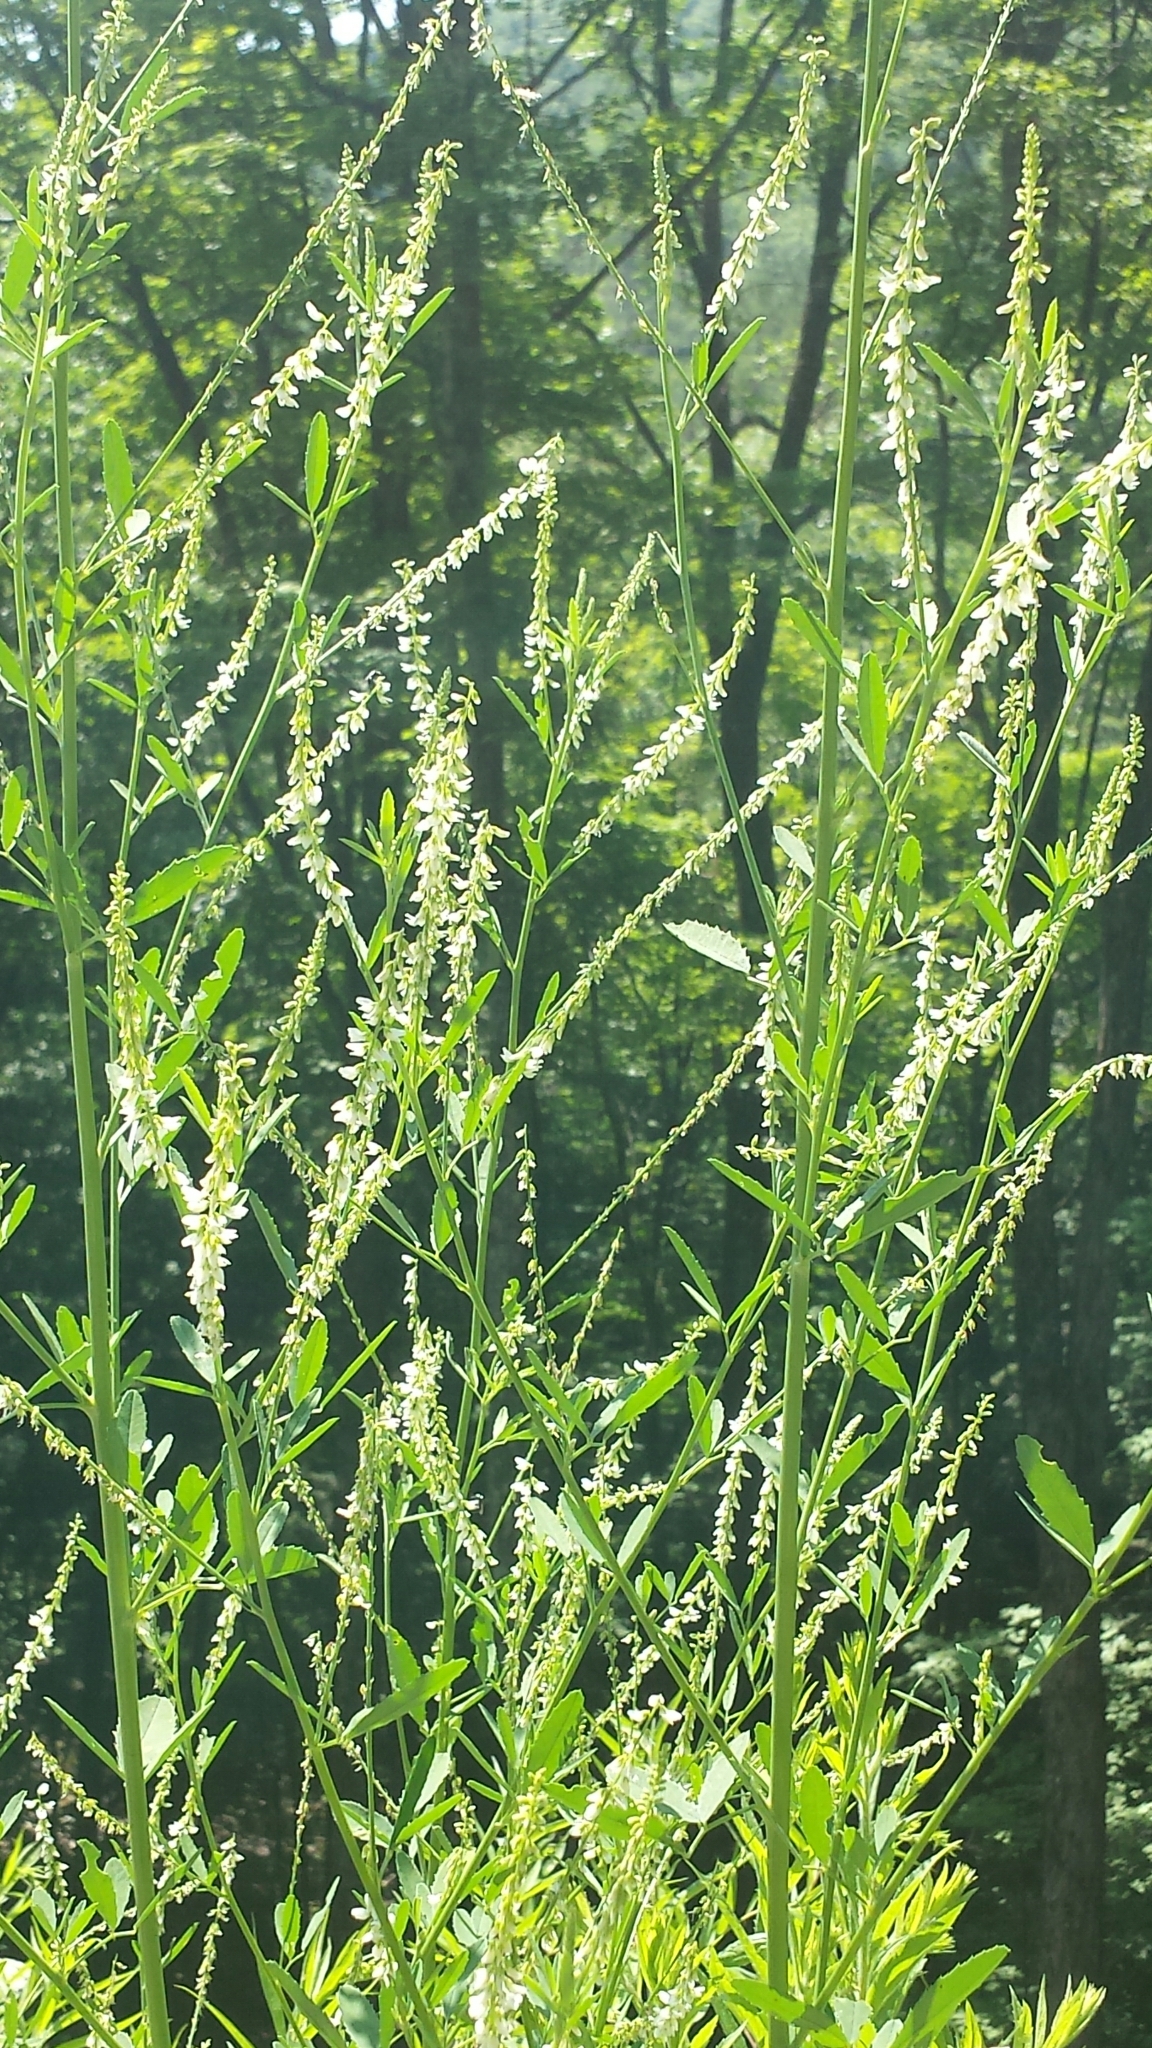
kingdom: Plantae
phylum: Tracheophyta
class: Magnoliopsida
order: Fabales
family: Fabaceae
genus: Melilotus
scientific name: Melilotus albus
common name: White melilot
